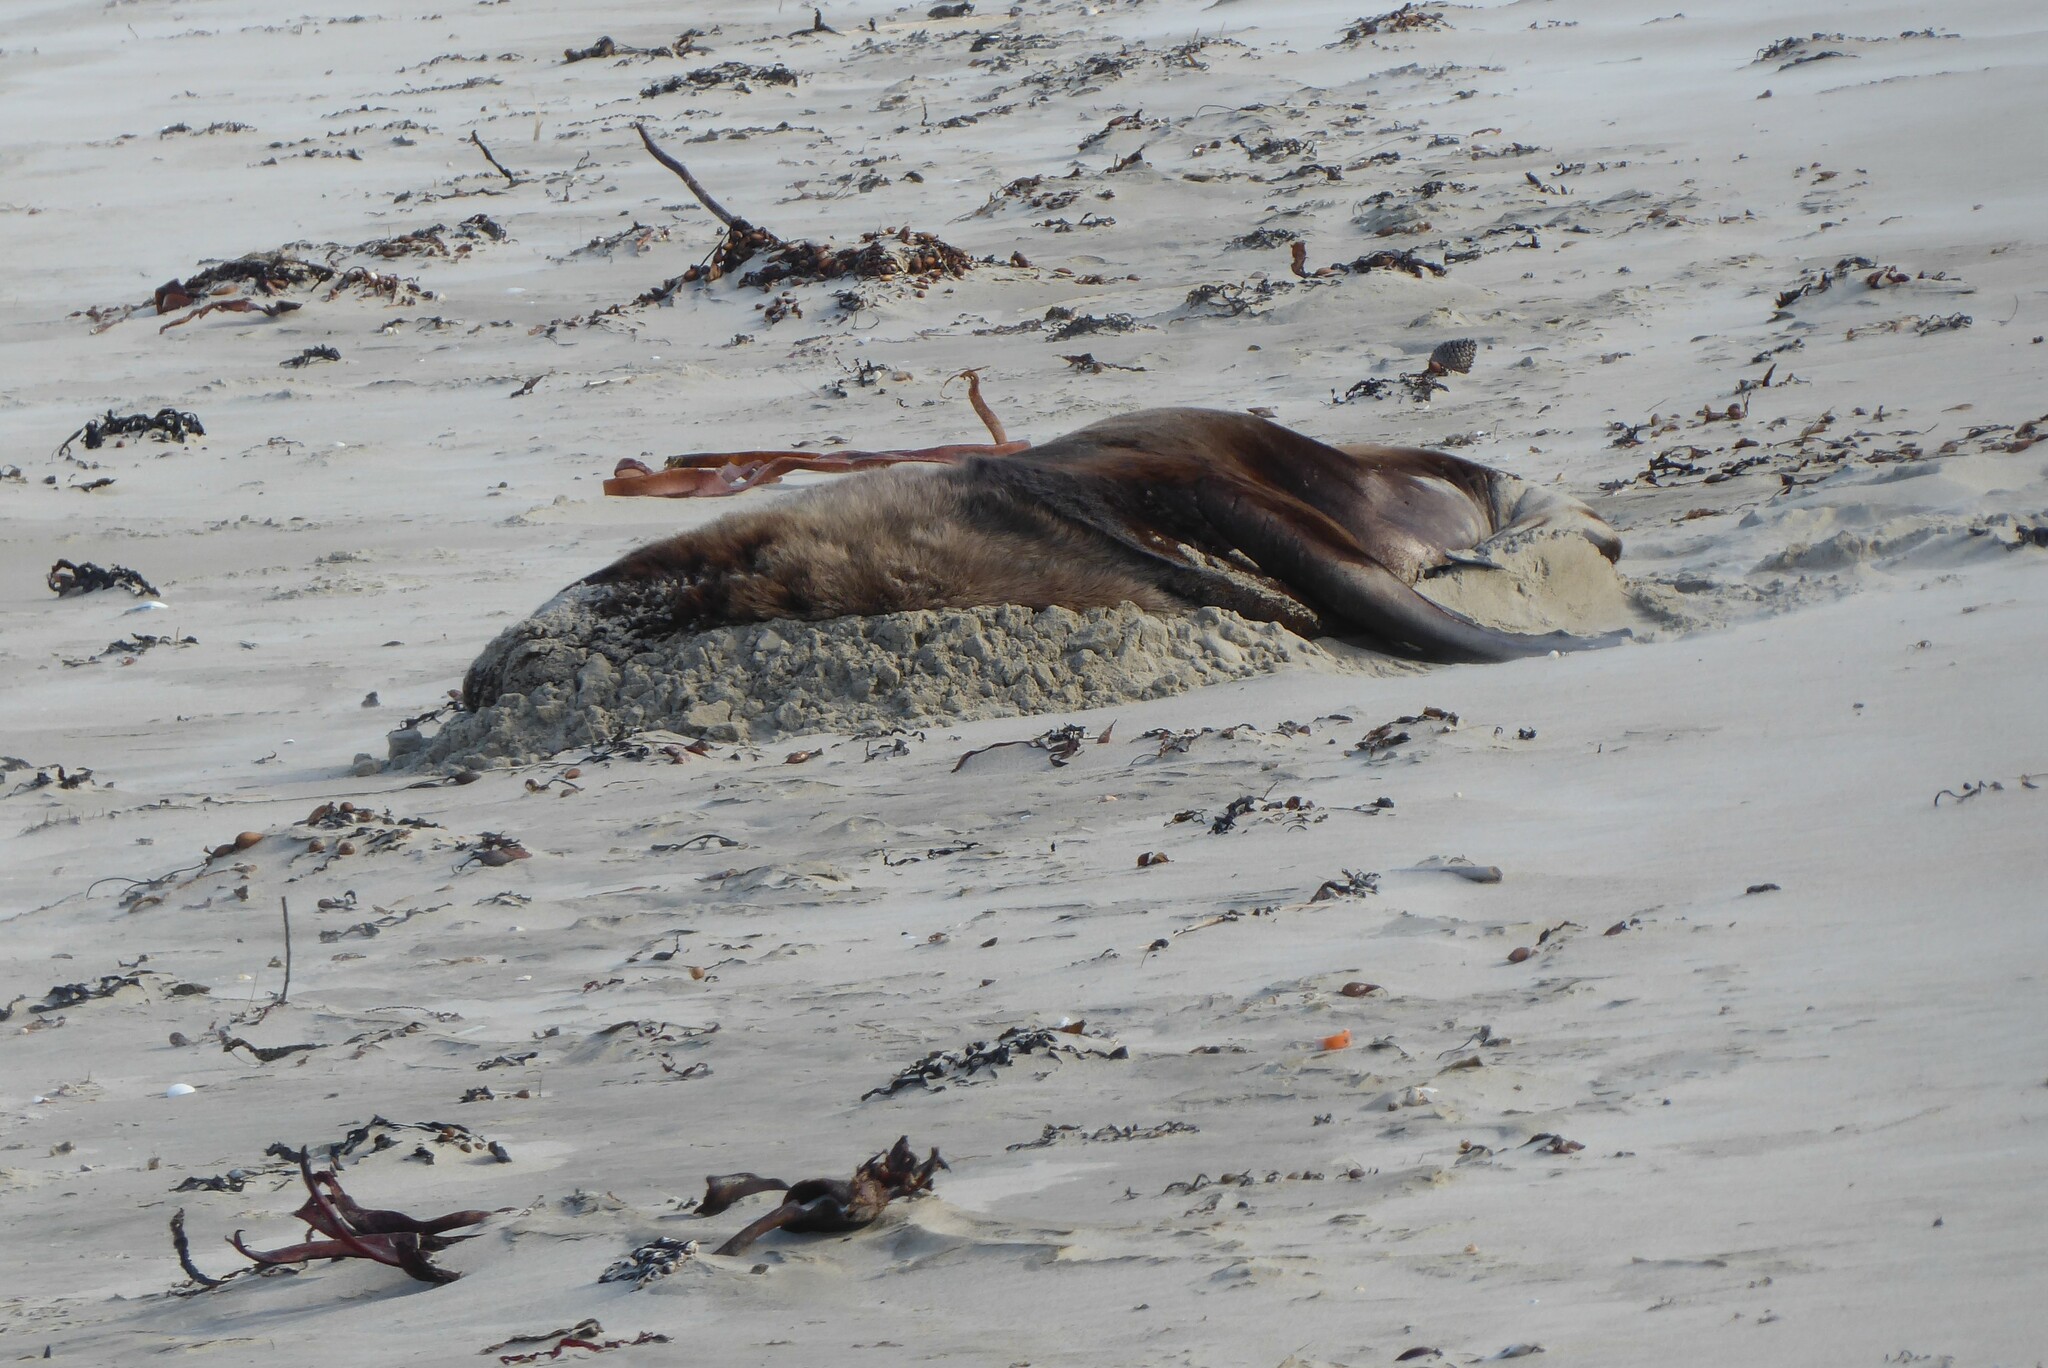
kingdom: Animalia
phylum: Chordata
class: Mammalia
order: Carnivora
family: Otariidae
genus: Phocarctos
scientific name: Phocarctos hookeri
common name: New zealand sea lion
